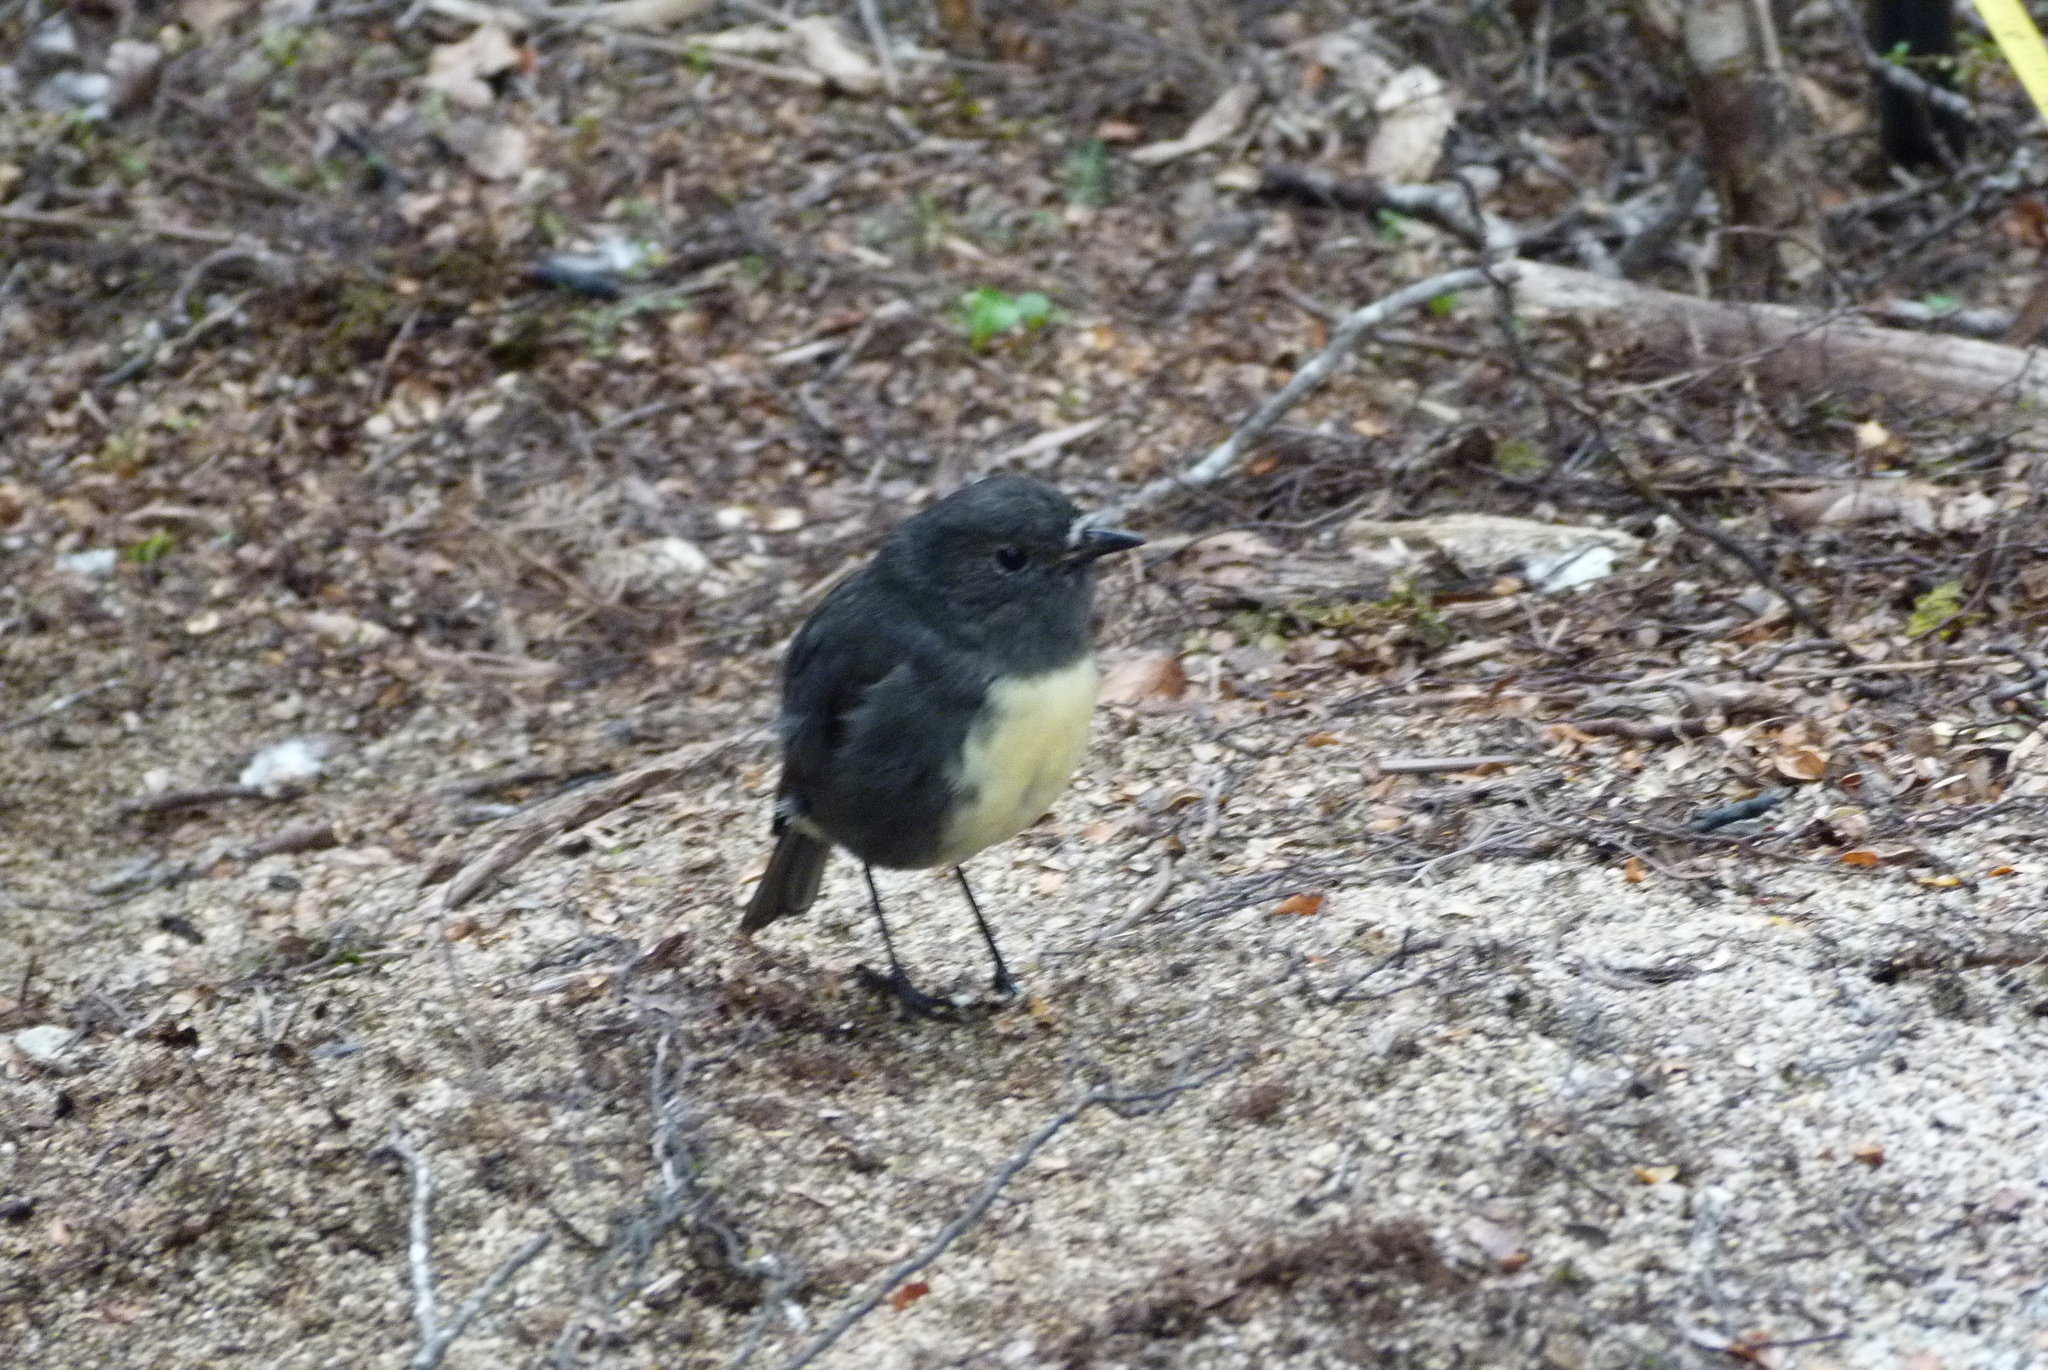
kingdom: Animalia
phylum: Chordata
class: Aves
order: Passeriformes
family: Petroicidae
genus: Petroica
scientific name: Petroica australis
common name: New zealand robin
